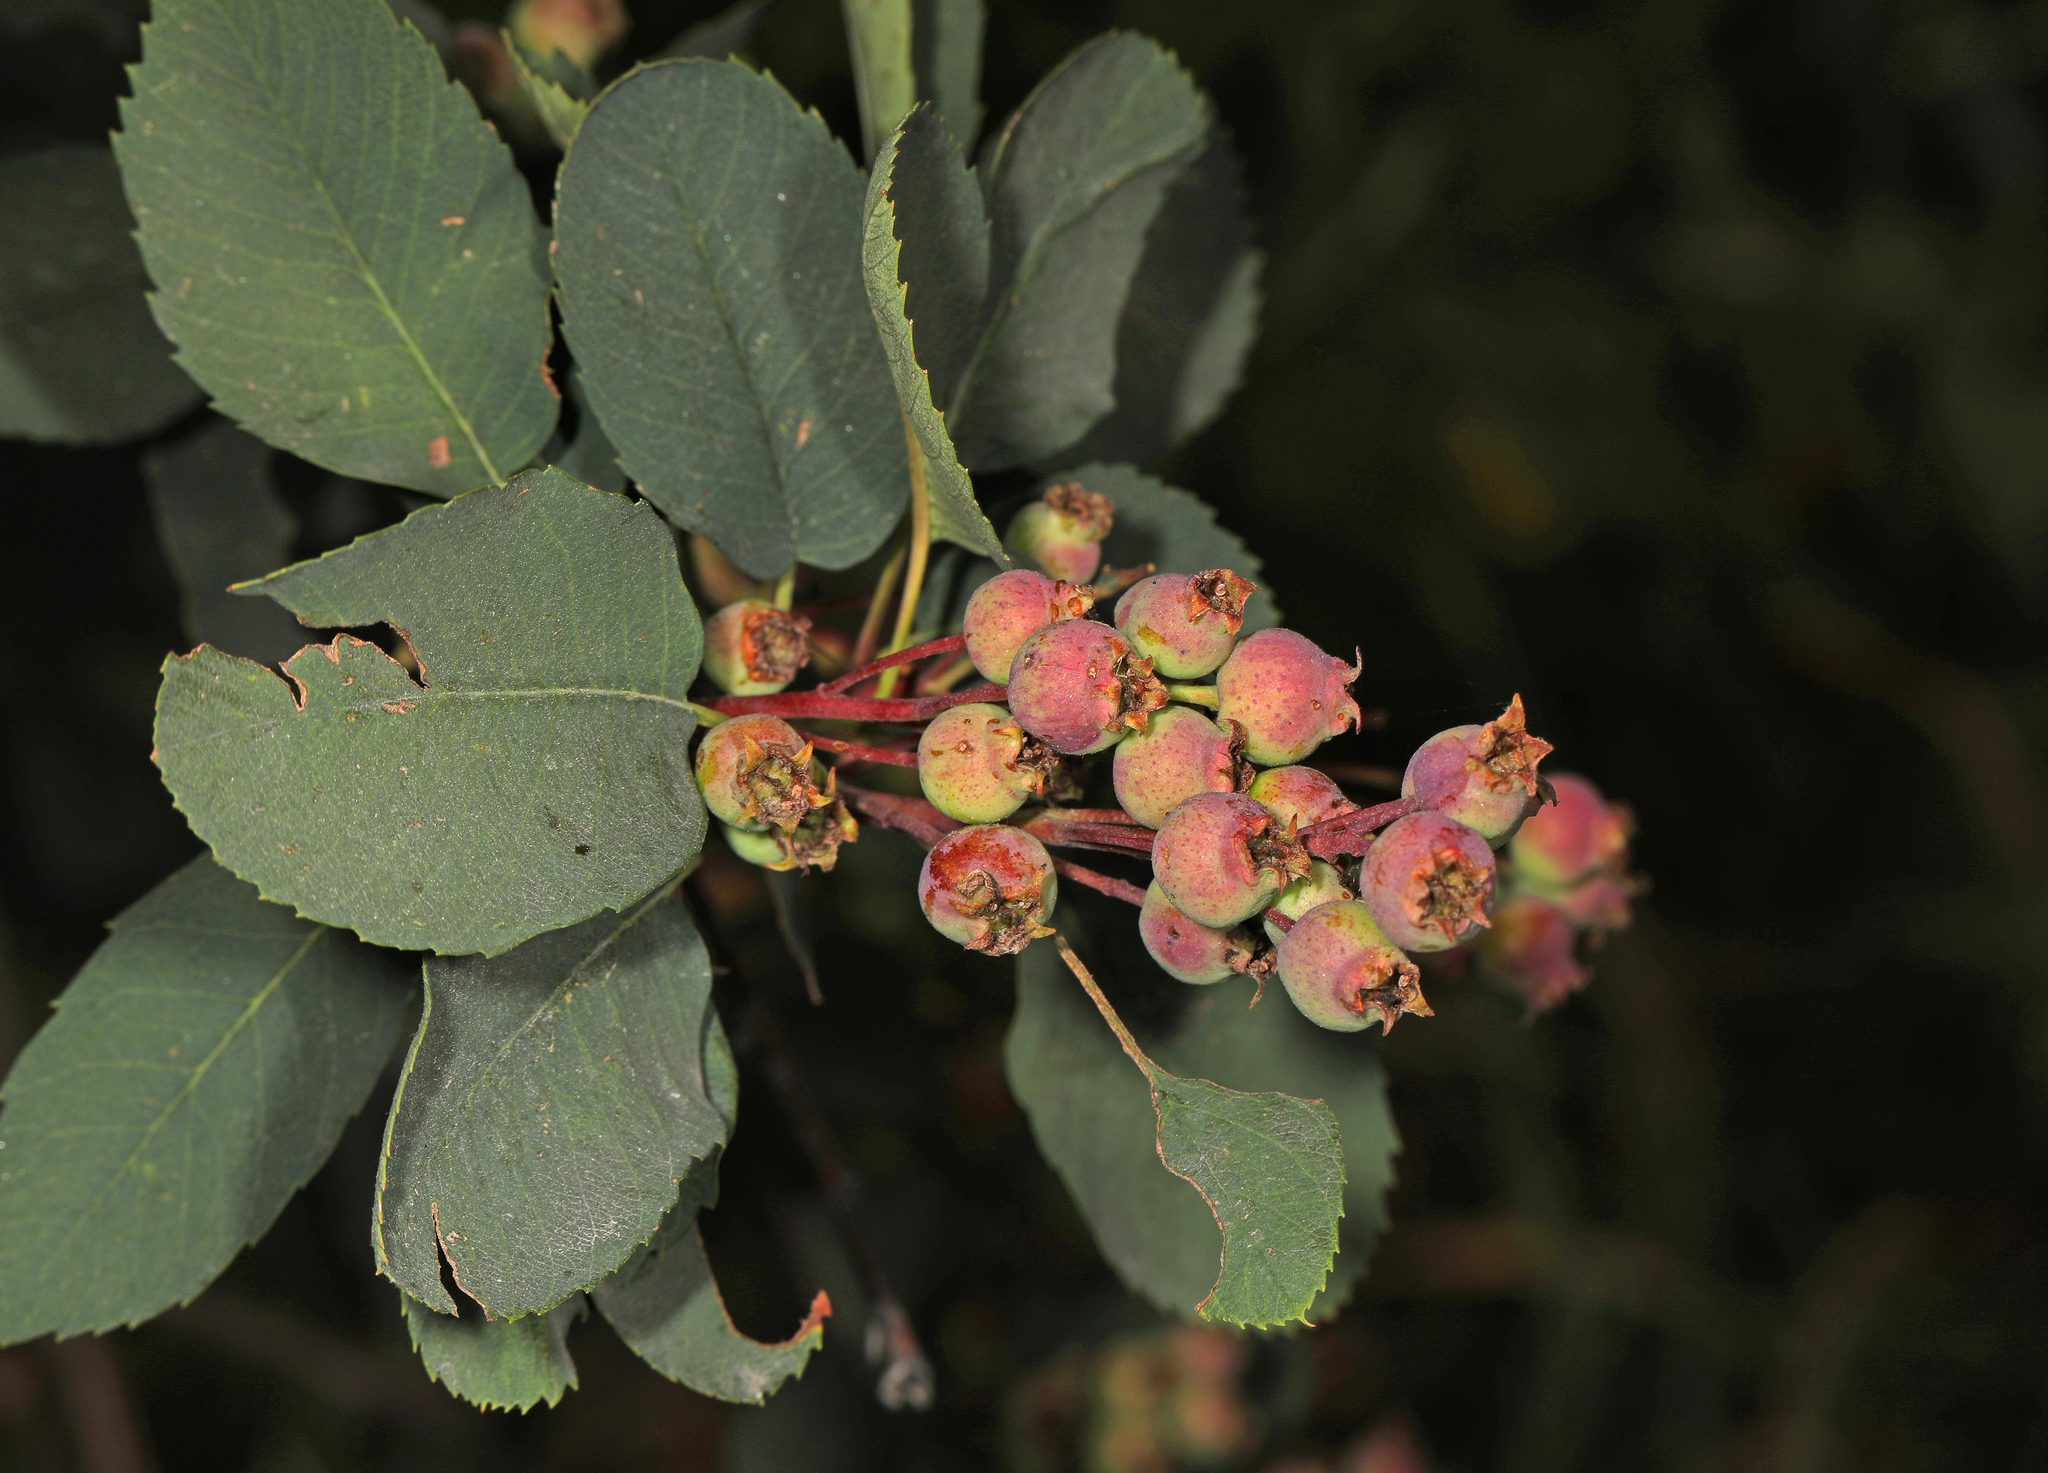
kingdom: Plantae
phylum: Tracheophyta
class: Magnoliopsida
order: Rosales
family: Rosaceae
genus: Amelanchier
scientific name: Amelanchier alnifolia
